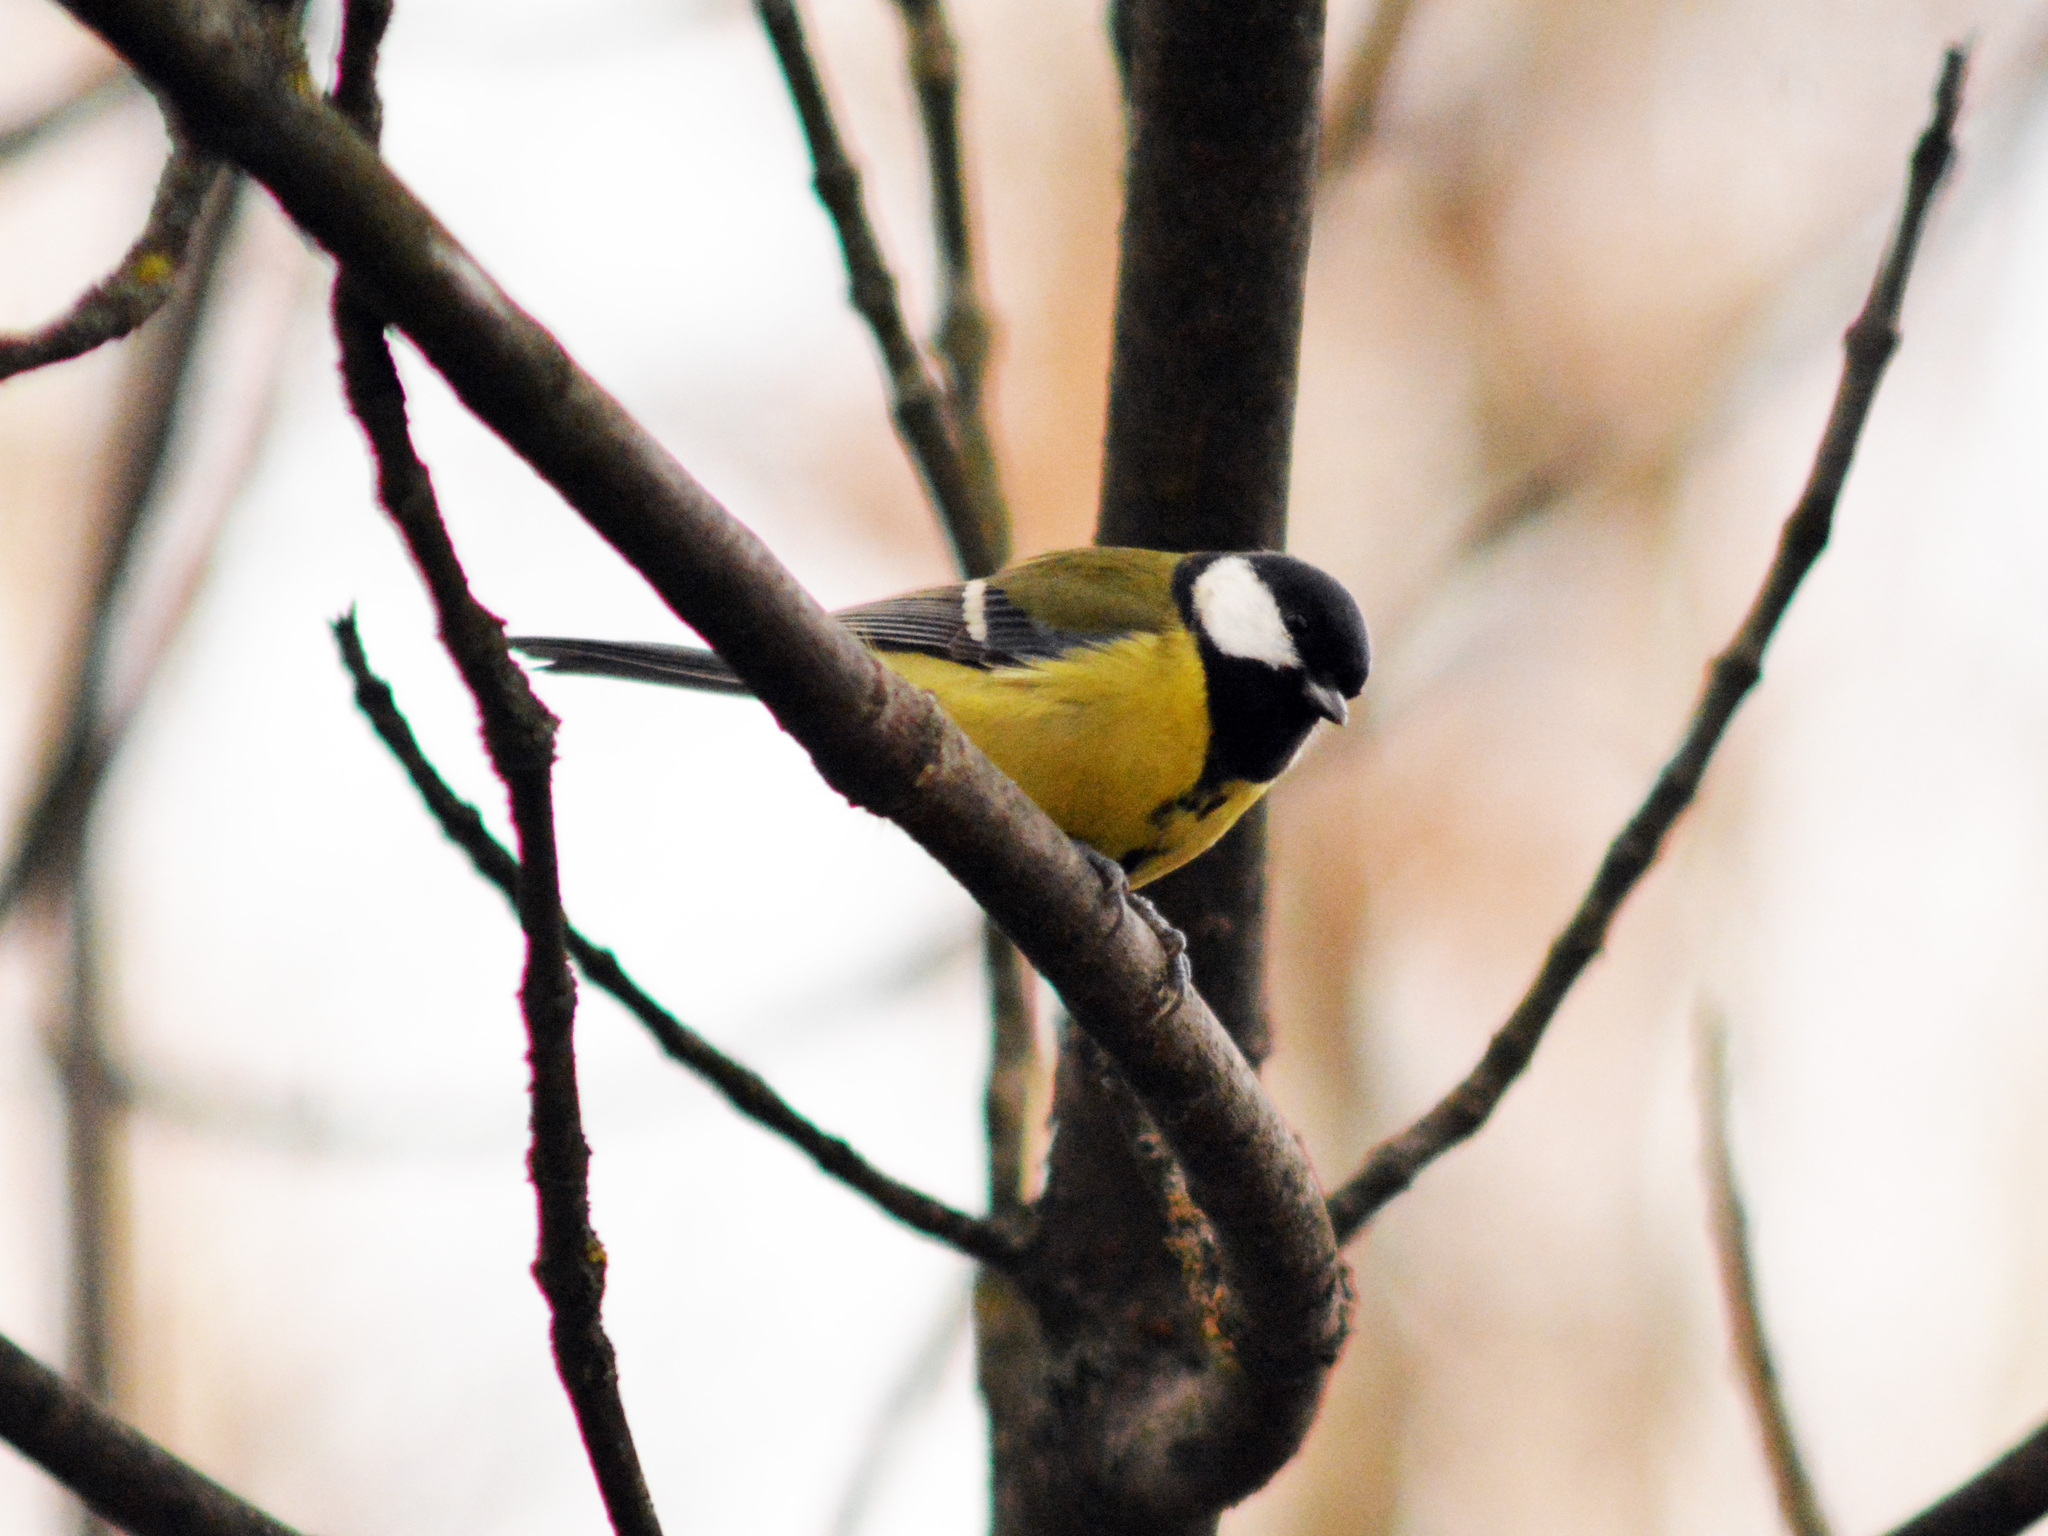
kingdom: Animalia
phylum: Chordata
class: Aves
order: Passeriformes
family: Paridae
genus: Parus
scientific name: Parus major
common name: Great tit
